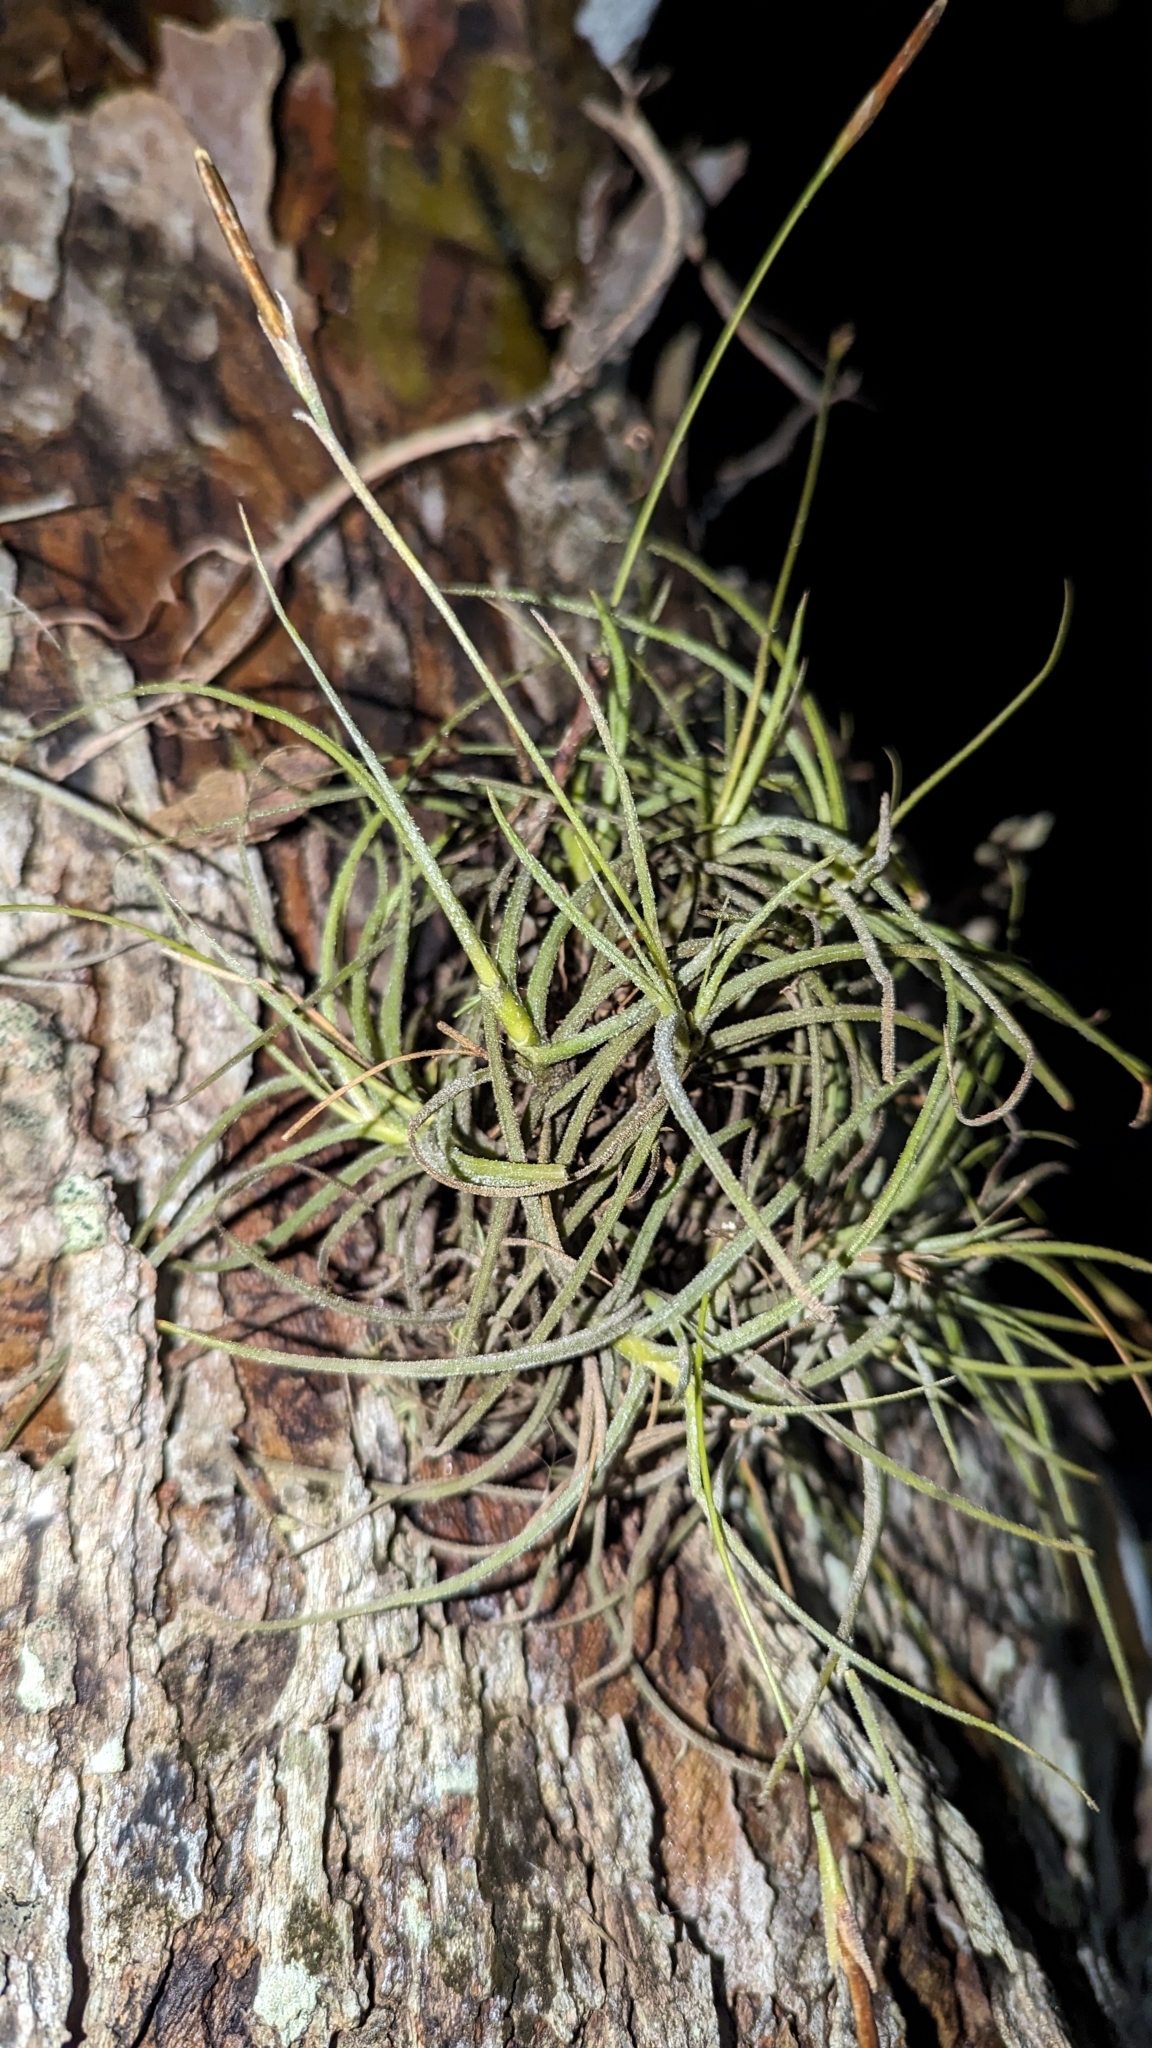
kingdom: Plantae
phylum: Tracheophyta
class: Liliopsida
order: Poales
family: Bromeliaceae
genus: Tillandsia
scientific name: Tillandsia recurvata
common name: Small ballmoss
